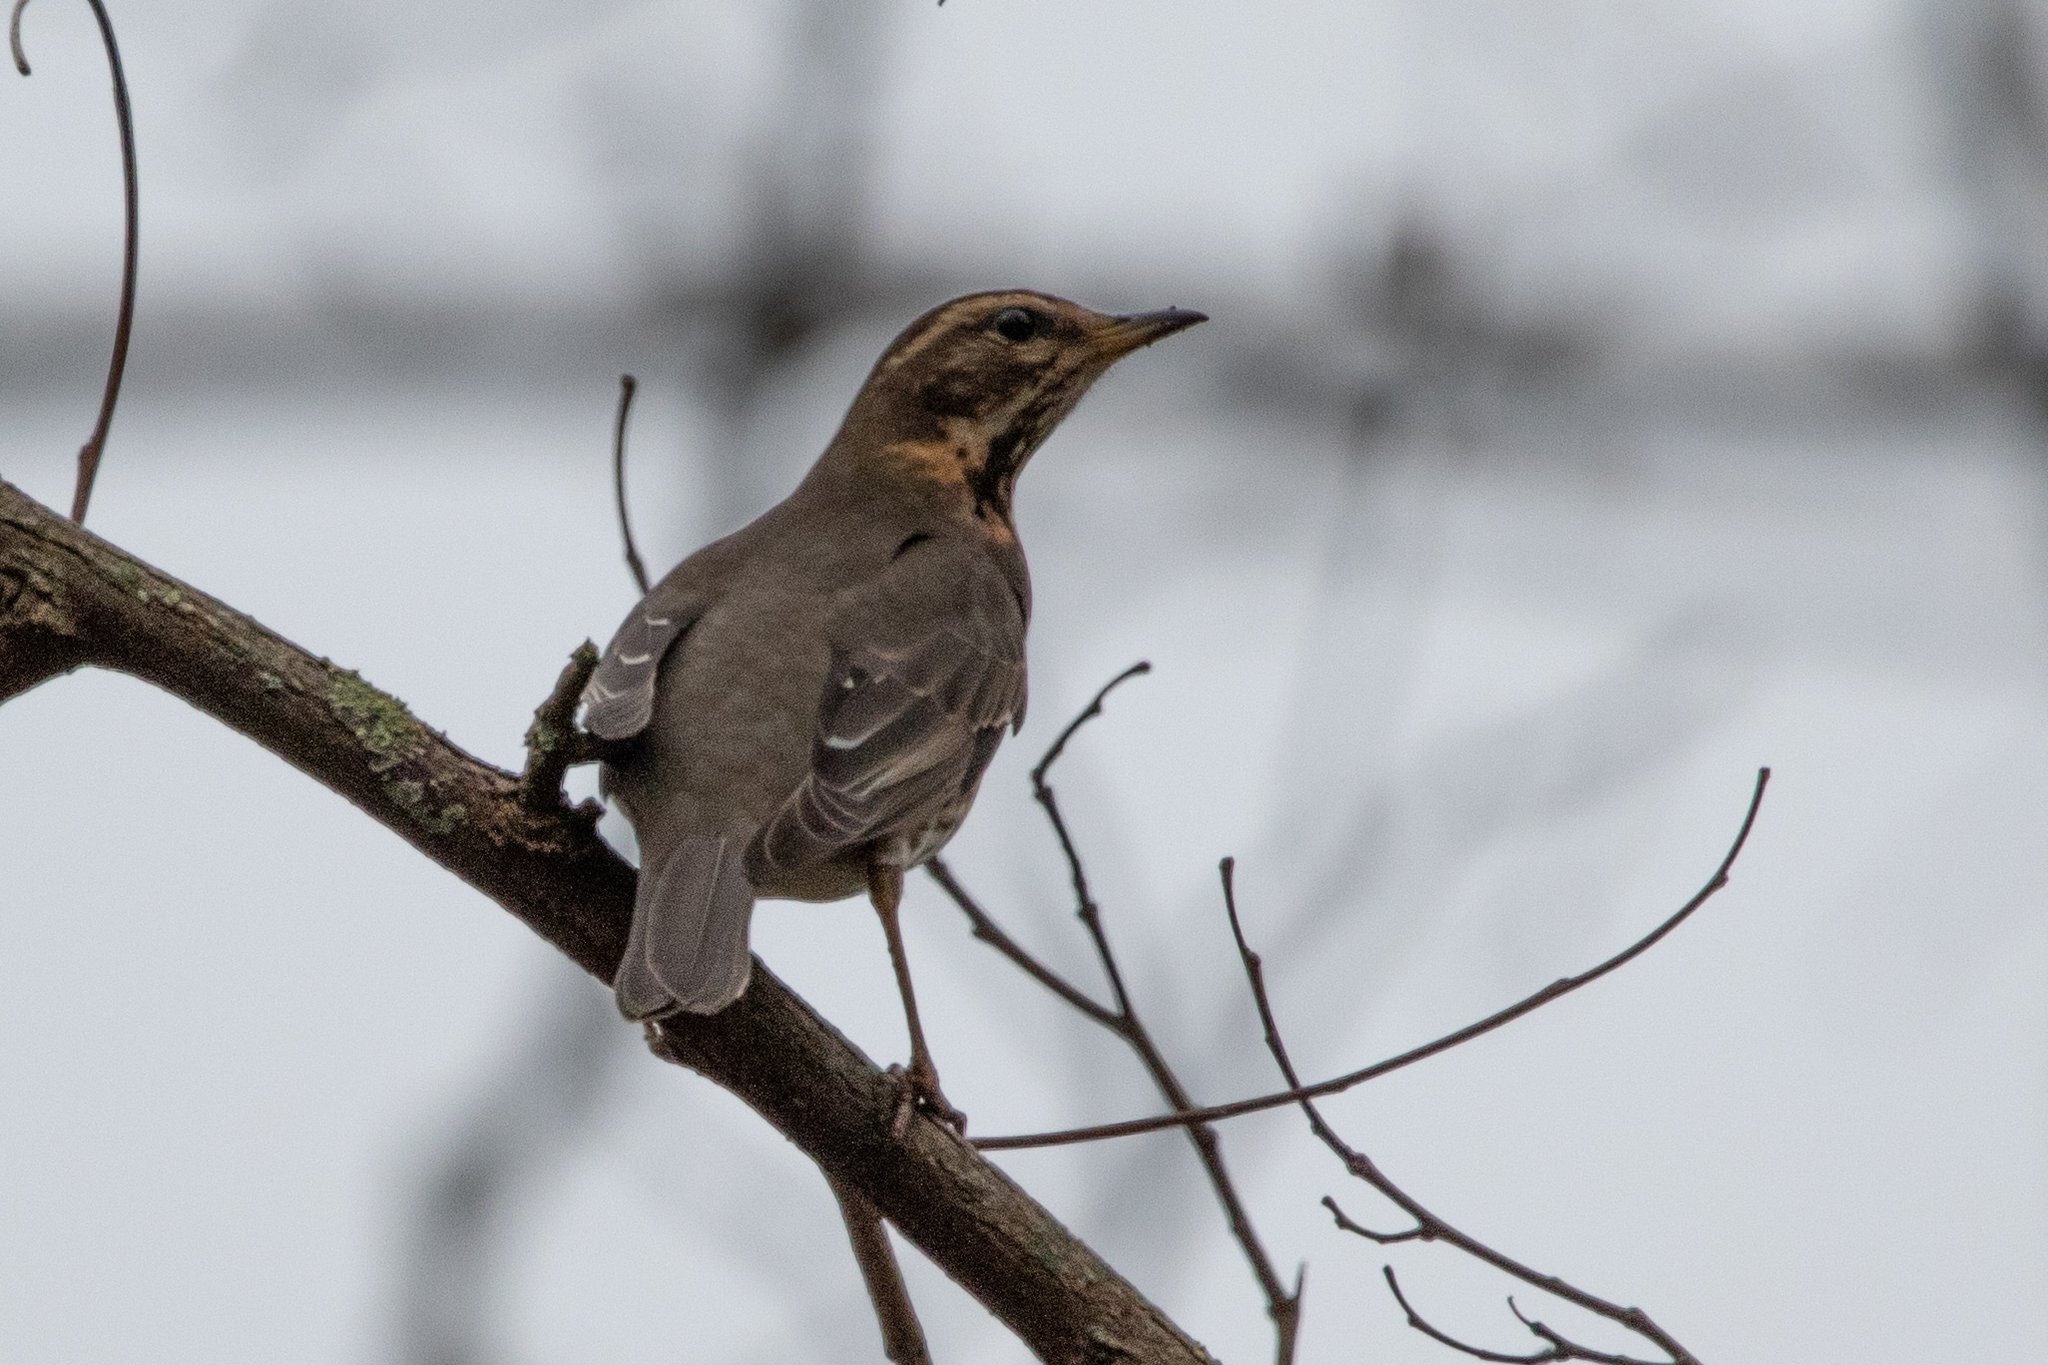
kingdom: Animalia
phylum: Chordata
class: Aves
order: Passeriformes
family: Turdidae
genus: Turdus
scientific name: Turdus iliacus
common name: Redwing
